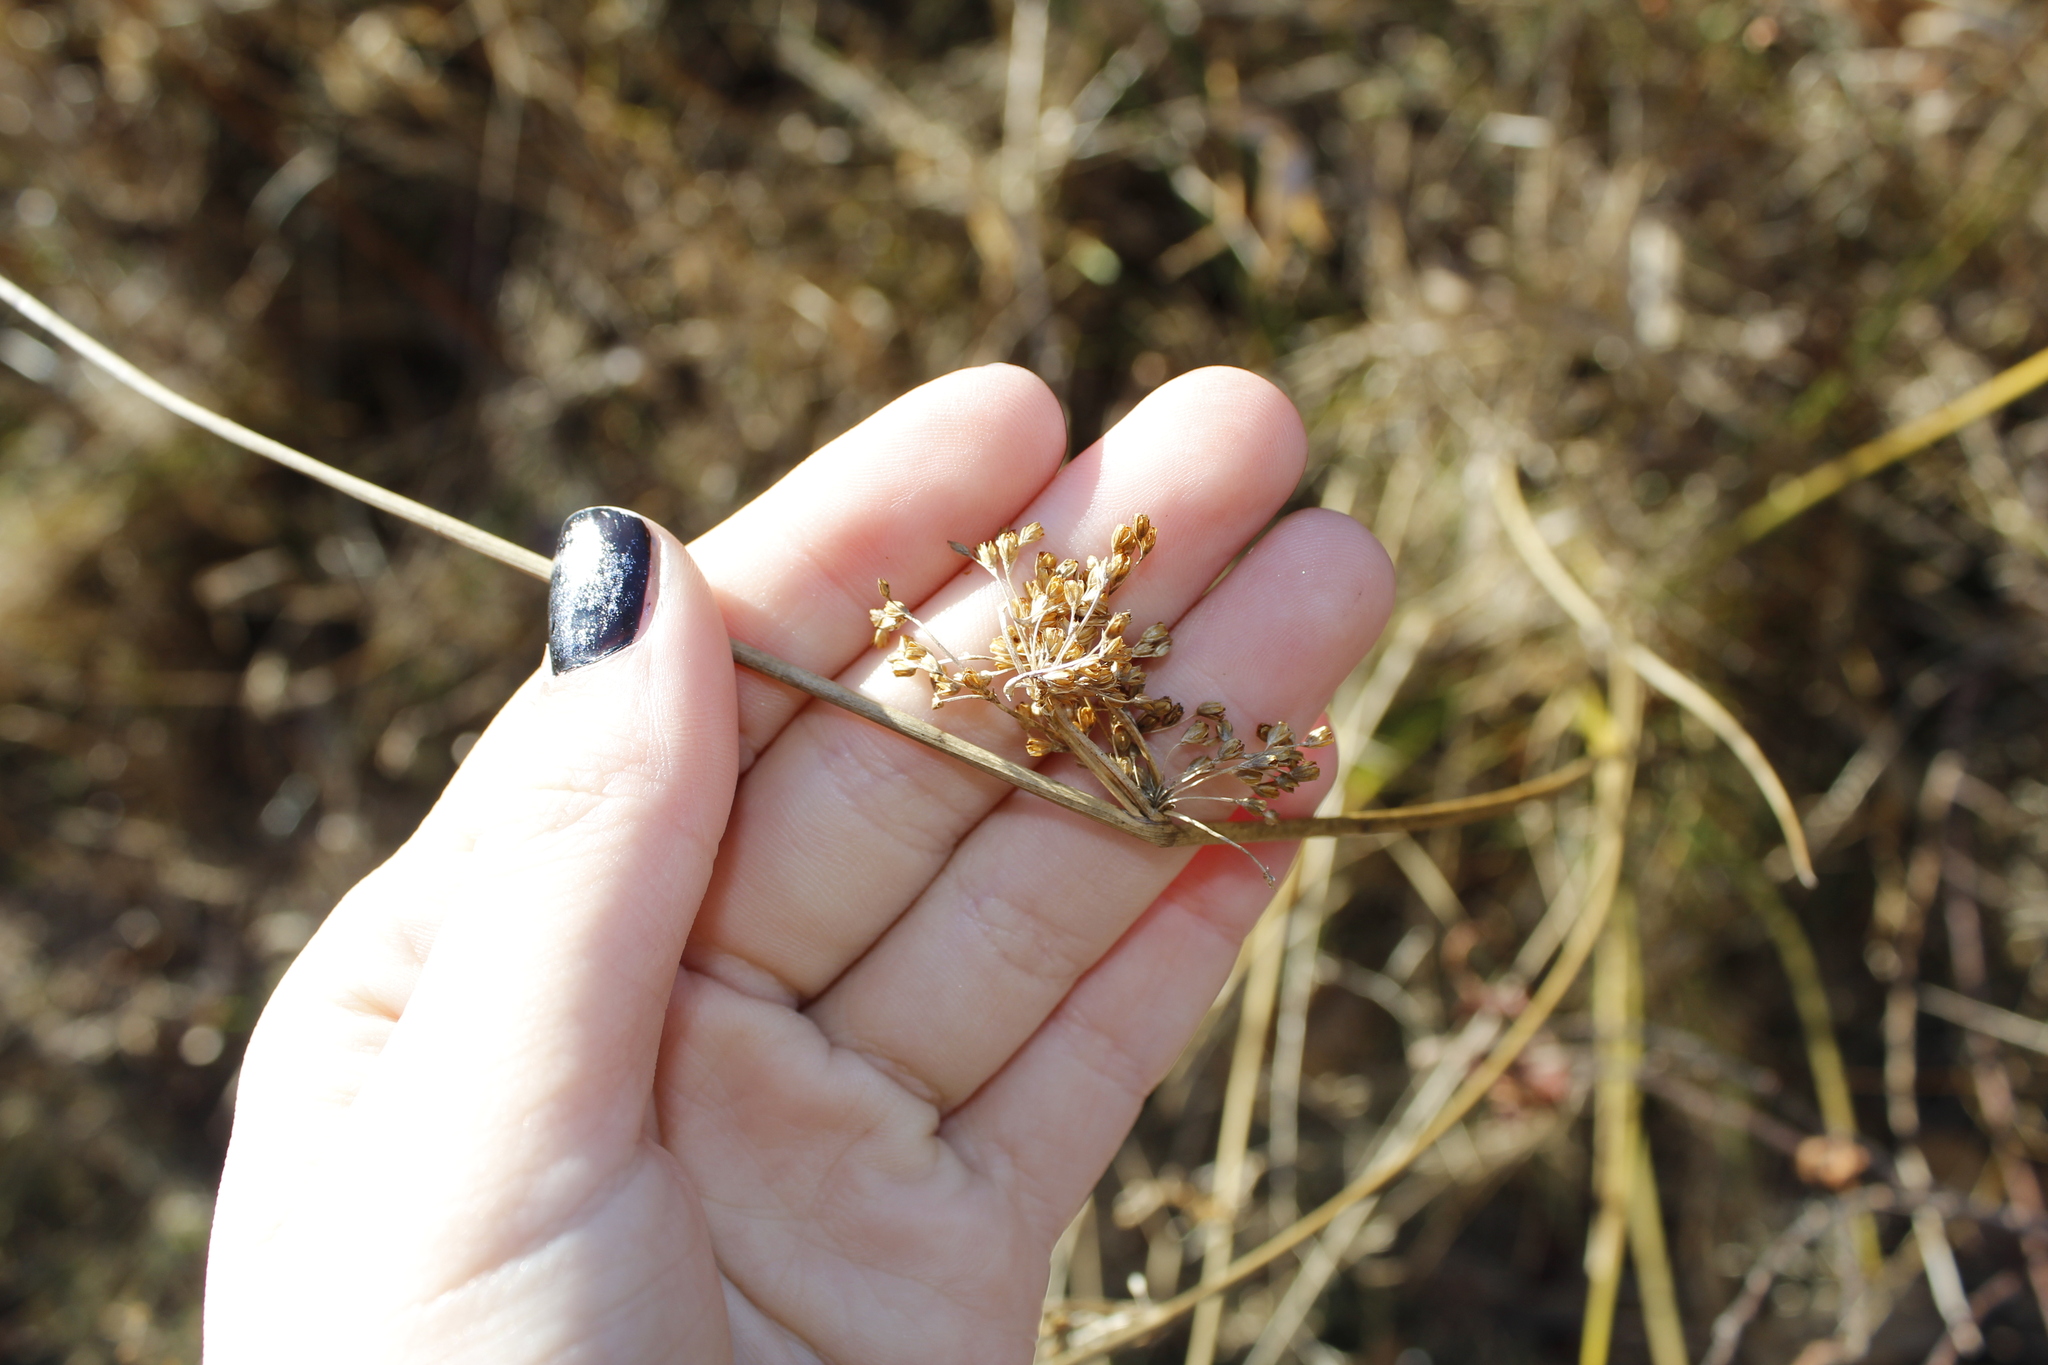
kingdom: Plantae
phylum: Tracheophyta
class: Liliopsida
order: Poales
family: Juncaceae
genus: Juncus
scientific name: Juncus effusus
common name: Soft rush
